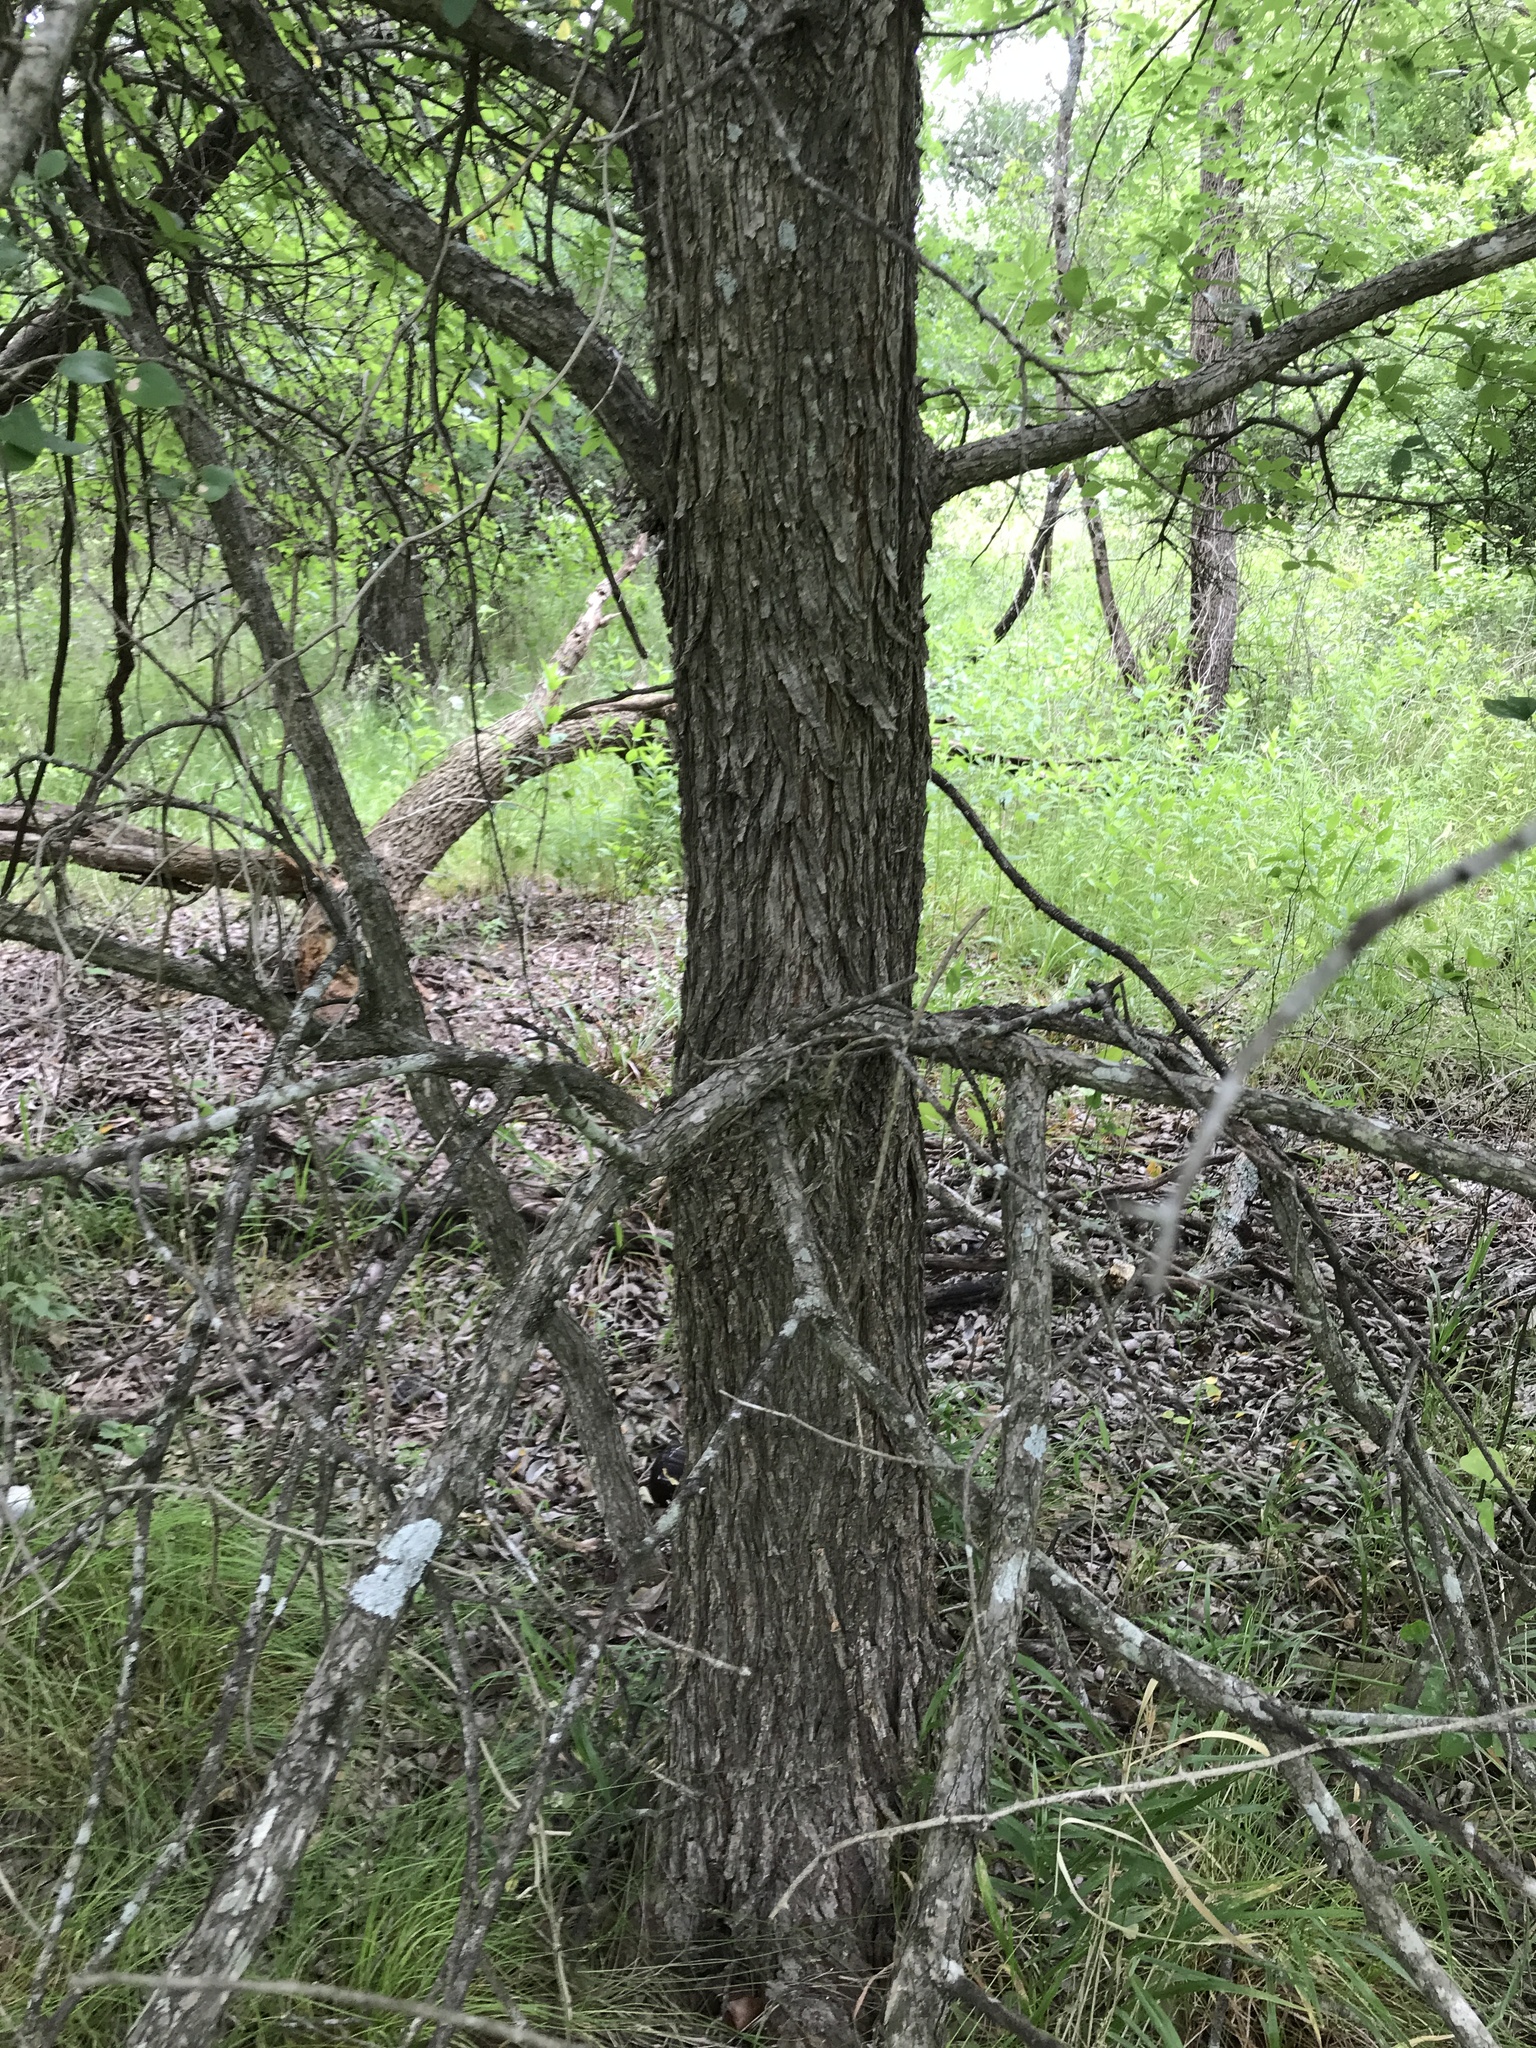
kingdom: Plantae
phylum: Tracheophyta
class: Magnoliopsida
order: Rosales
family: Ulmaceae
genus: Ulmus
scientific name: Ulmus crassifolia
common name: Basket elm
